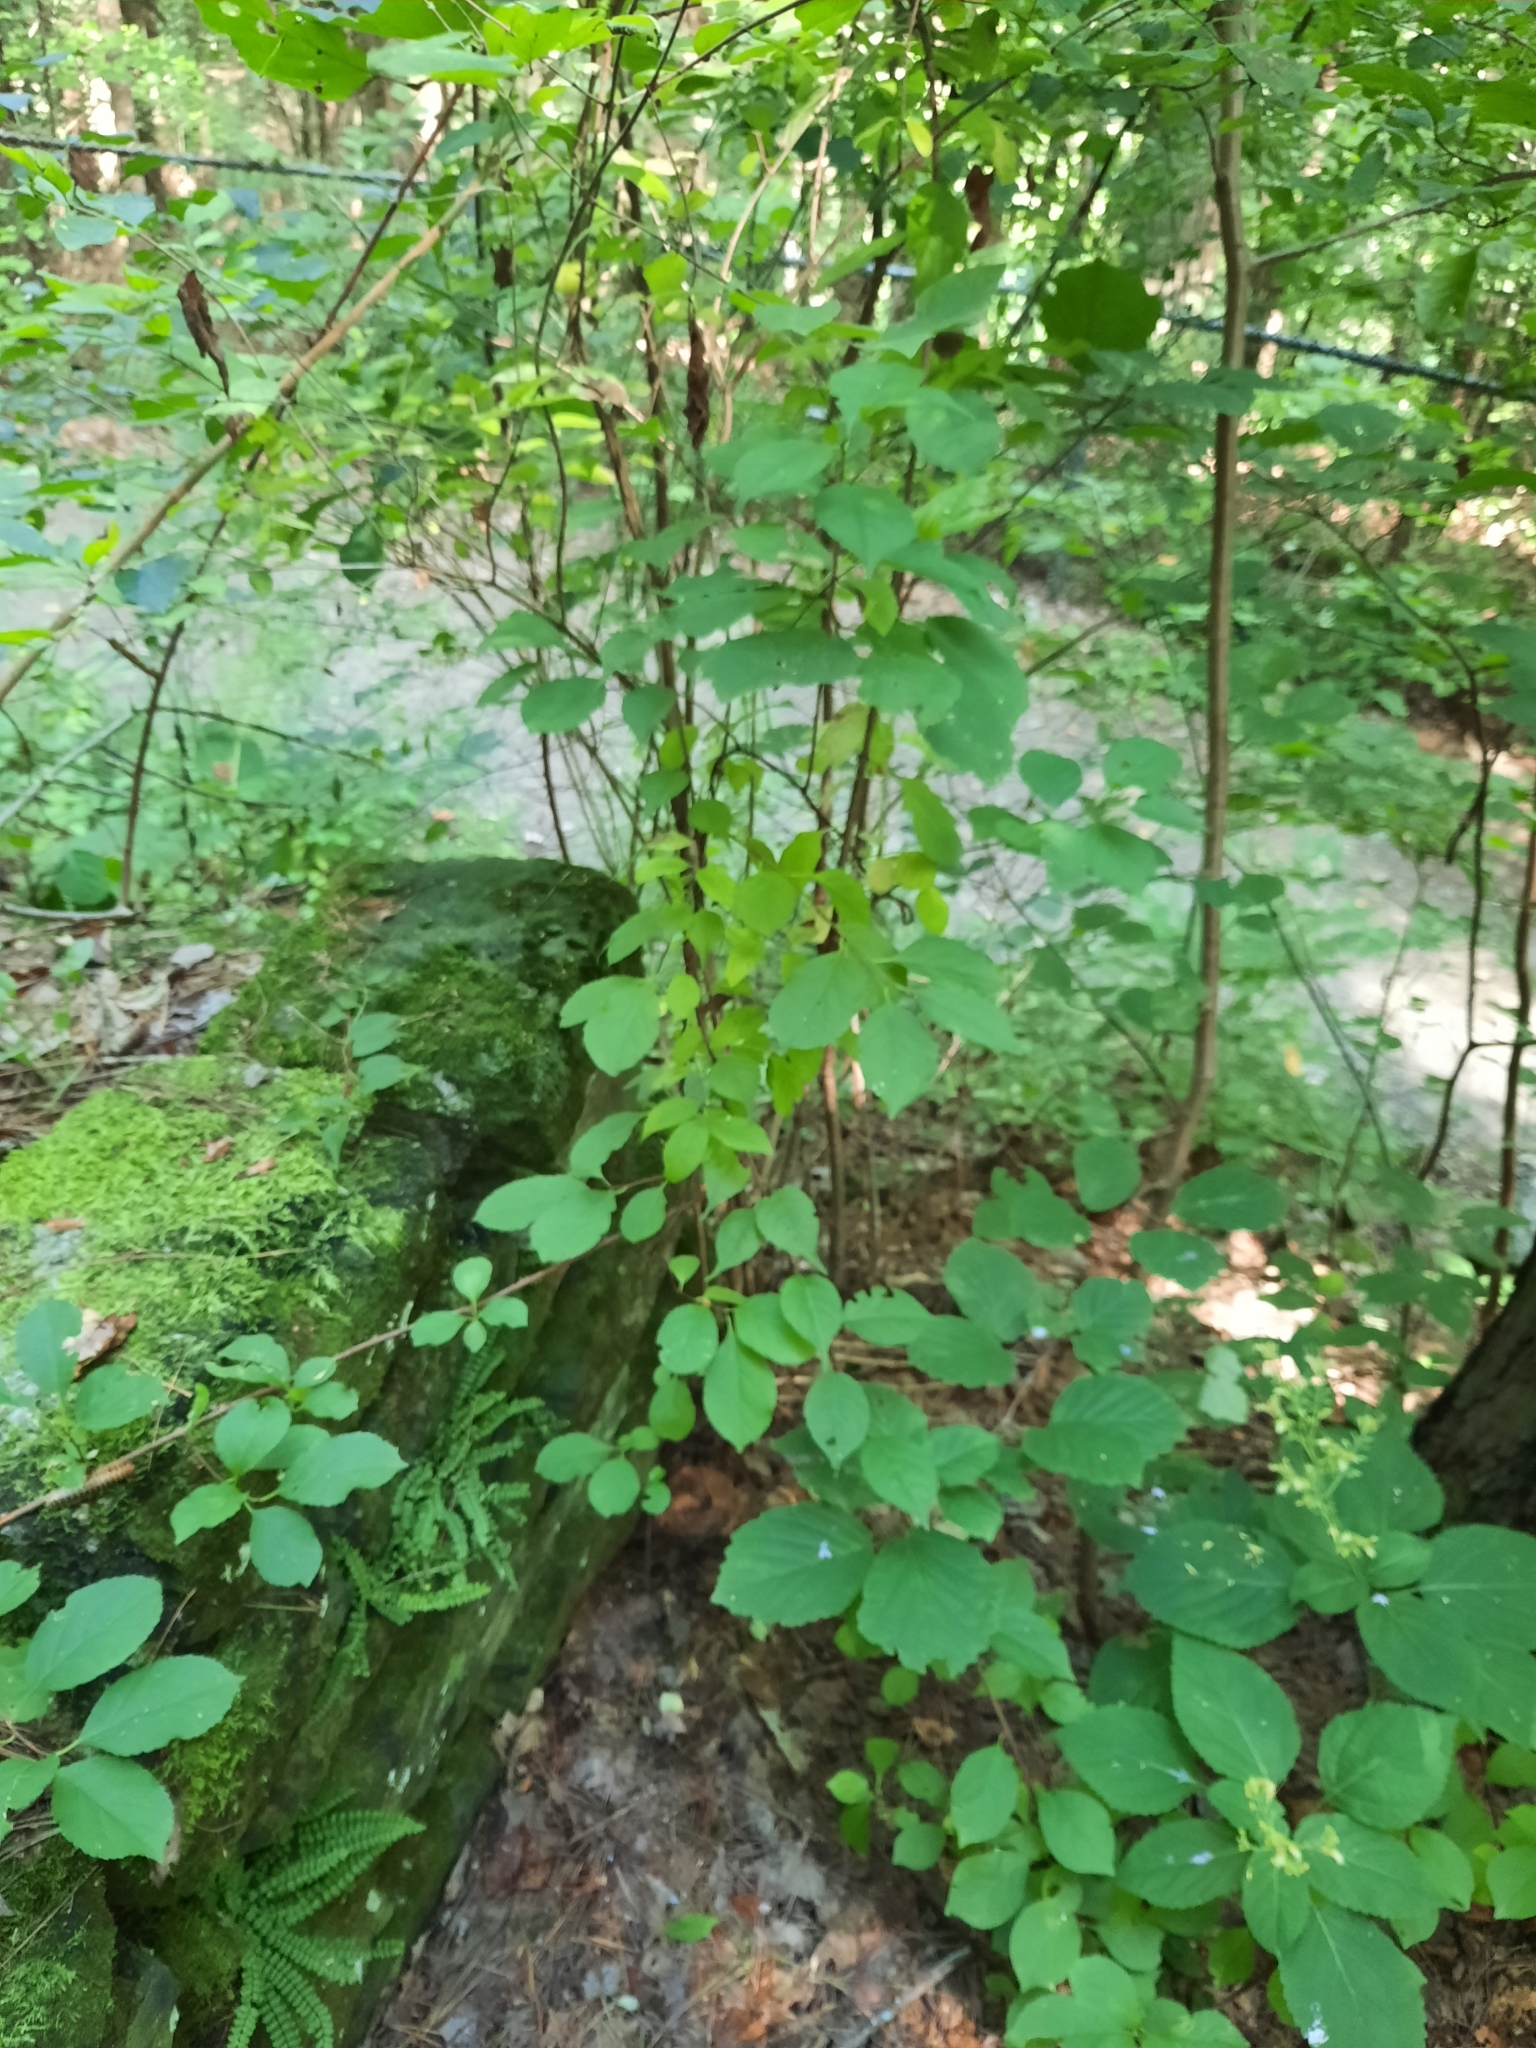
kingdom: Plantae
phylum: Tracheophyta
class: Magnoliopsida
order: Celastrales
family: Celastraceae
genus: Celastrus
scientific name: Celastrus orbiculatus
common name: Oriental bittersweet
